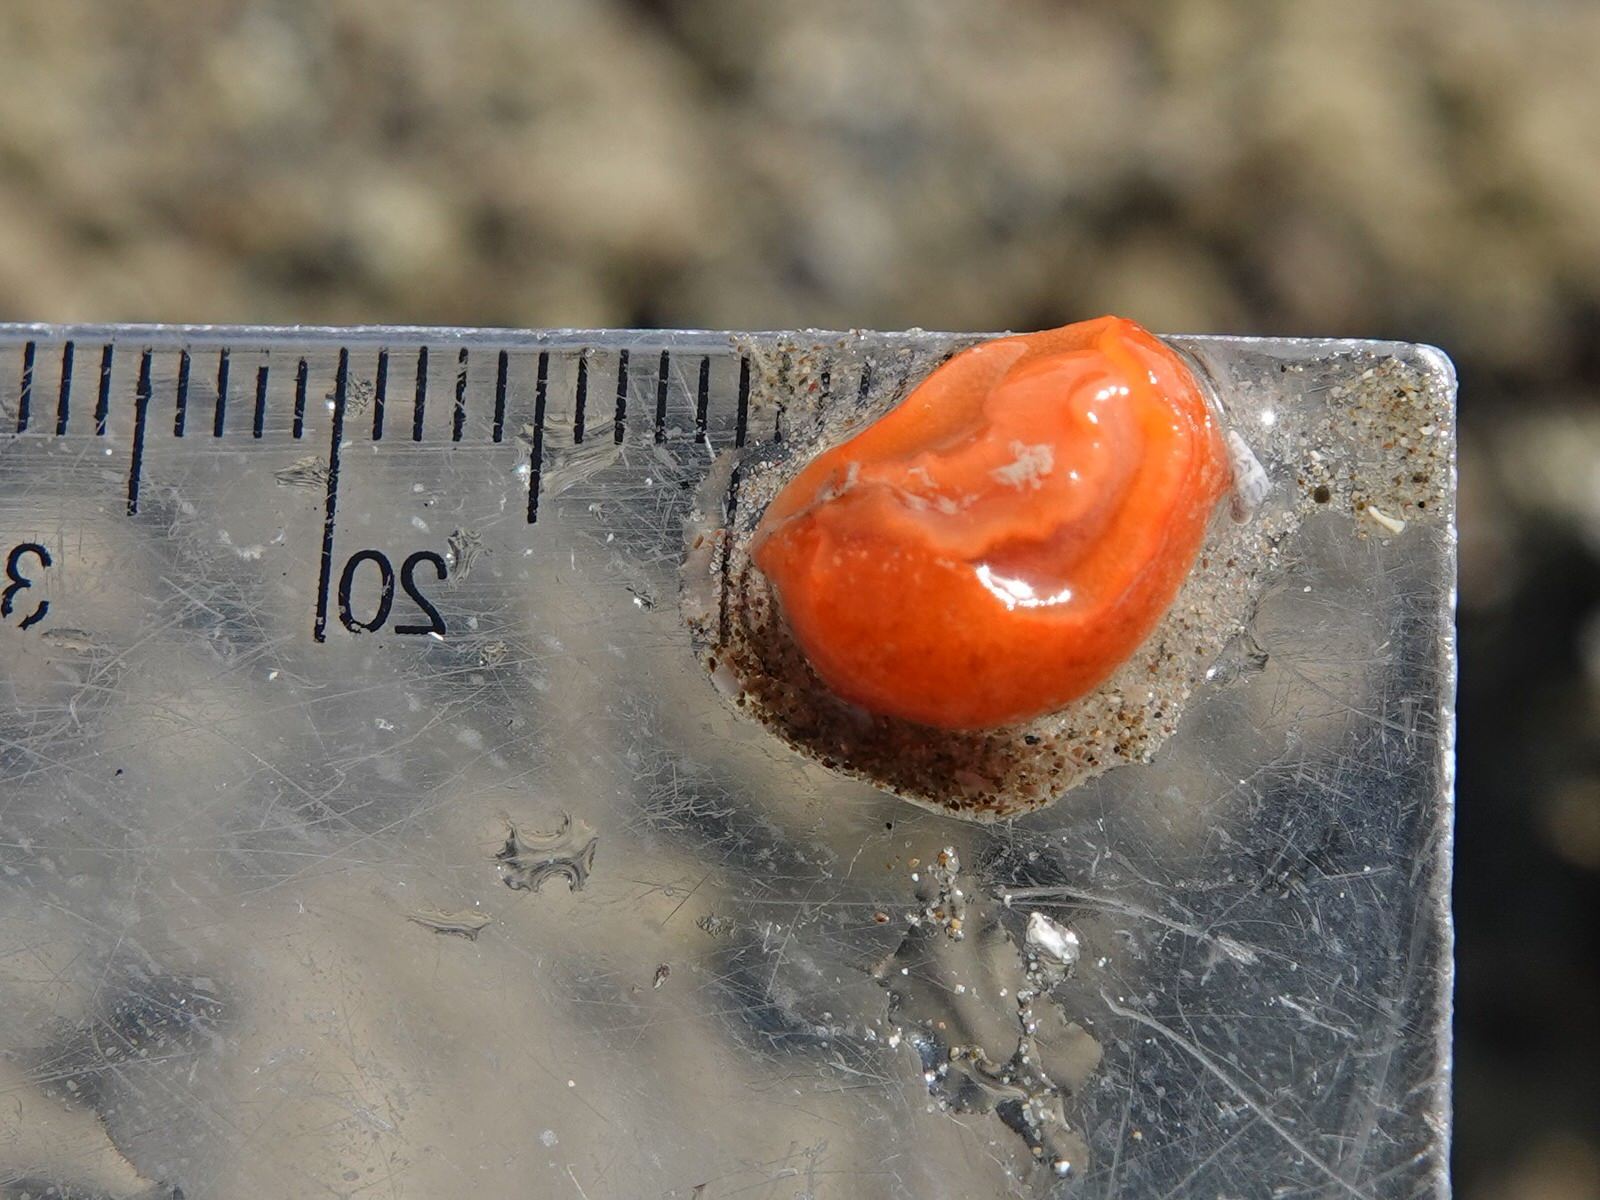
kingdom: Animalia
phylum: Mollusca
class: Gastropoda
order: Nudibranchia
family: Discodorididae
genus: Rostanga
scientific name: Rostanga muscula
